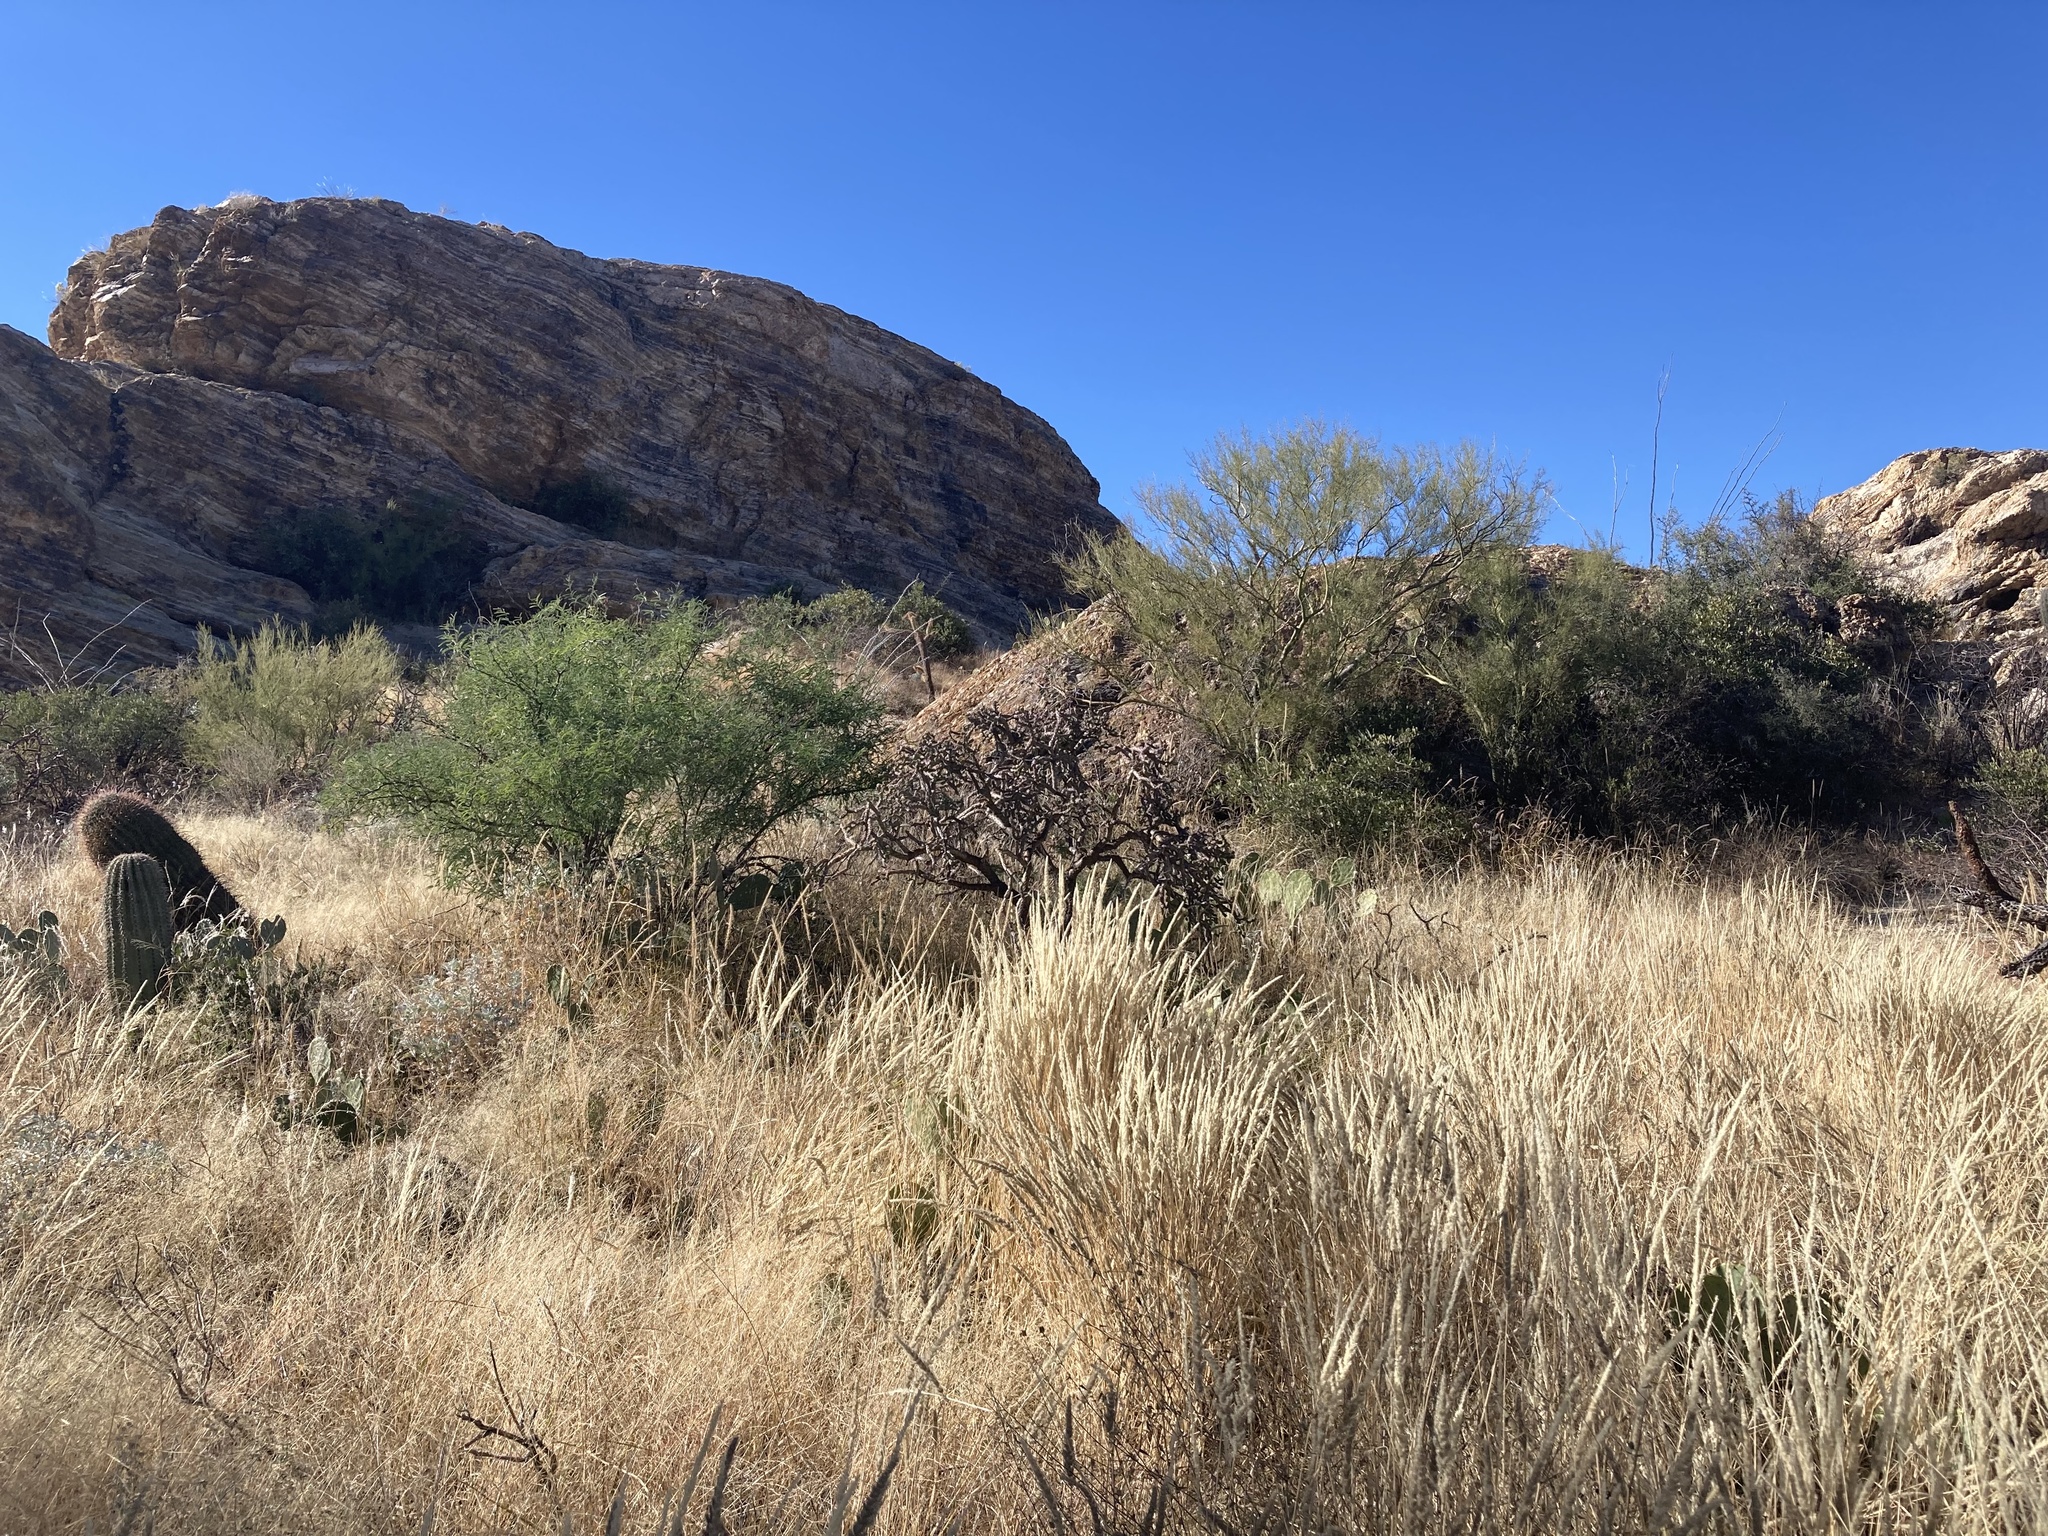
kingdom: Plantae
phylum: Tracheophyta
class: Liliopsida
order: Poales
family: Poaceae
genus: Enneapogon
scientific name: Enneapogon cenchroides
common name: Soft feather pappusgrass
